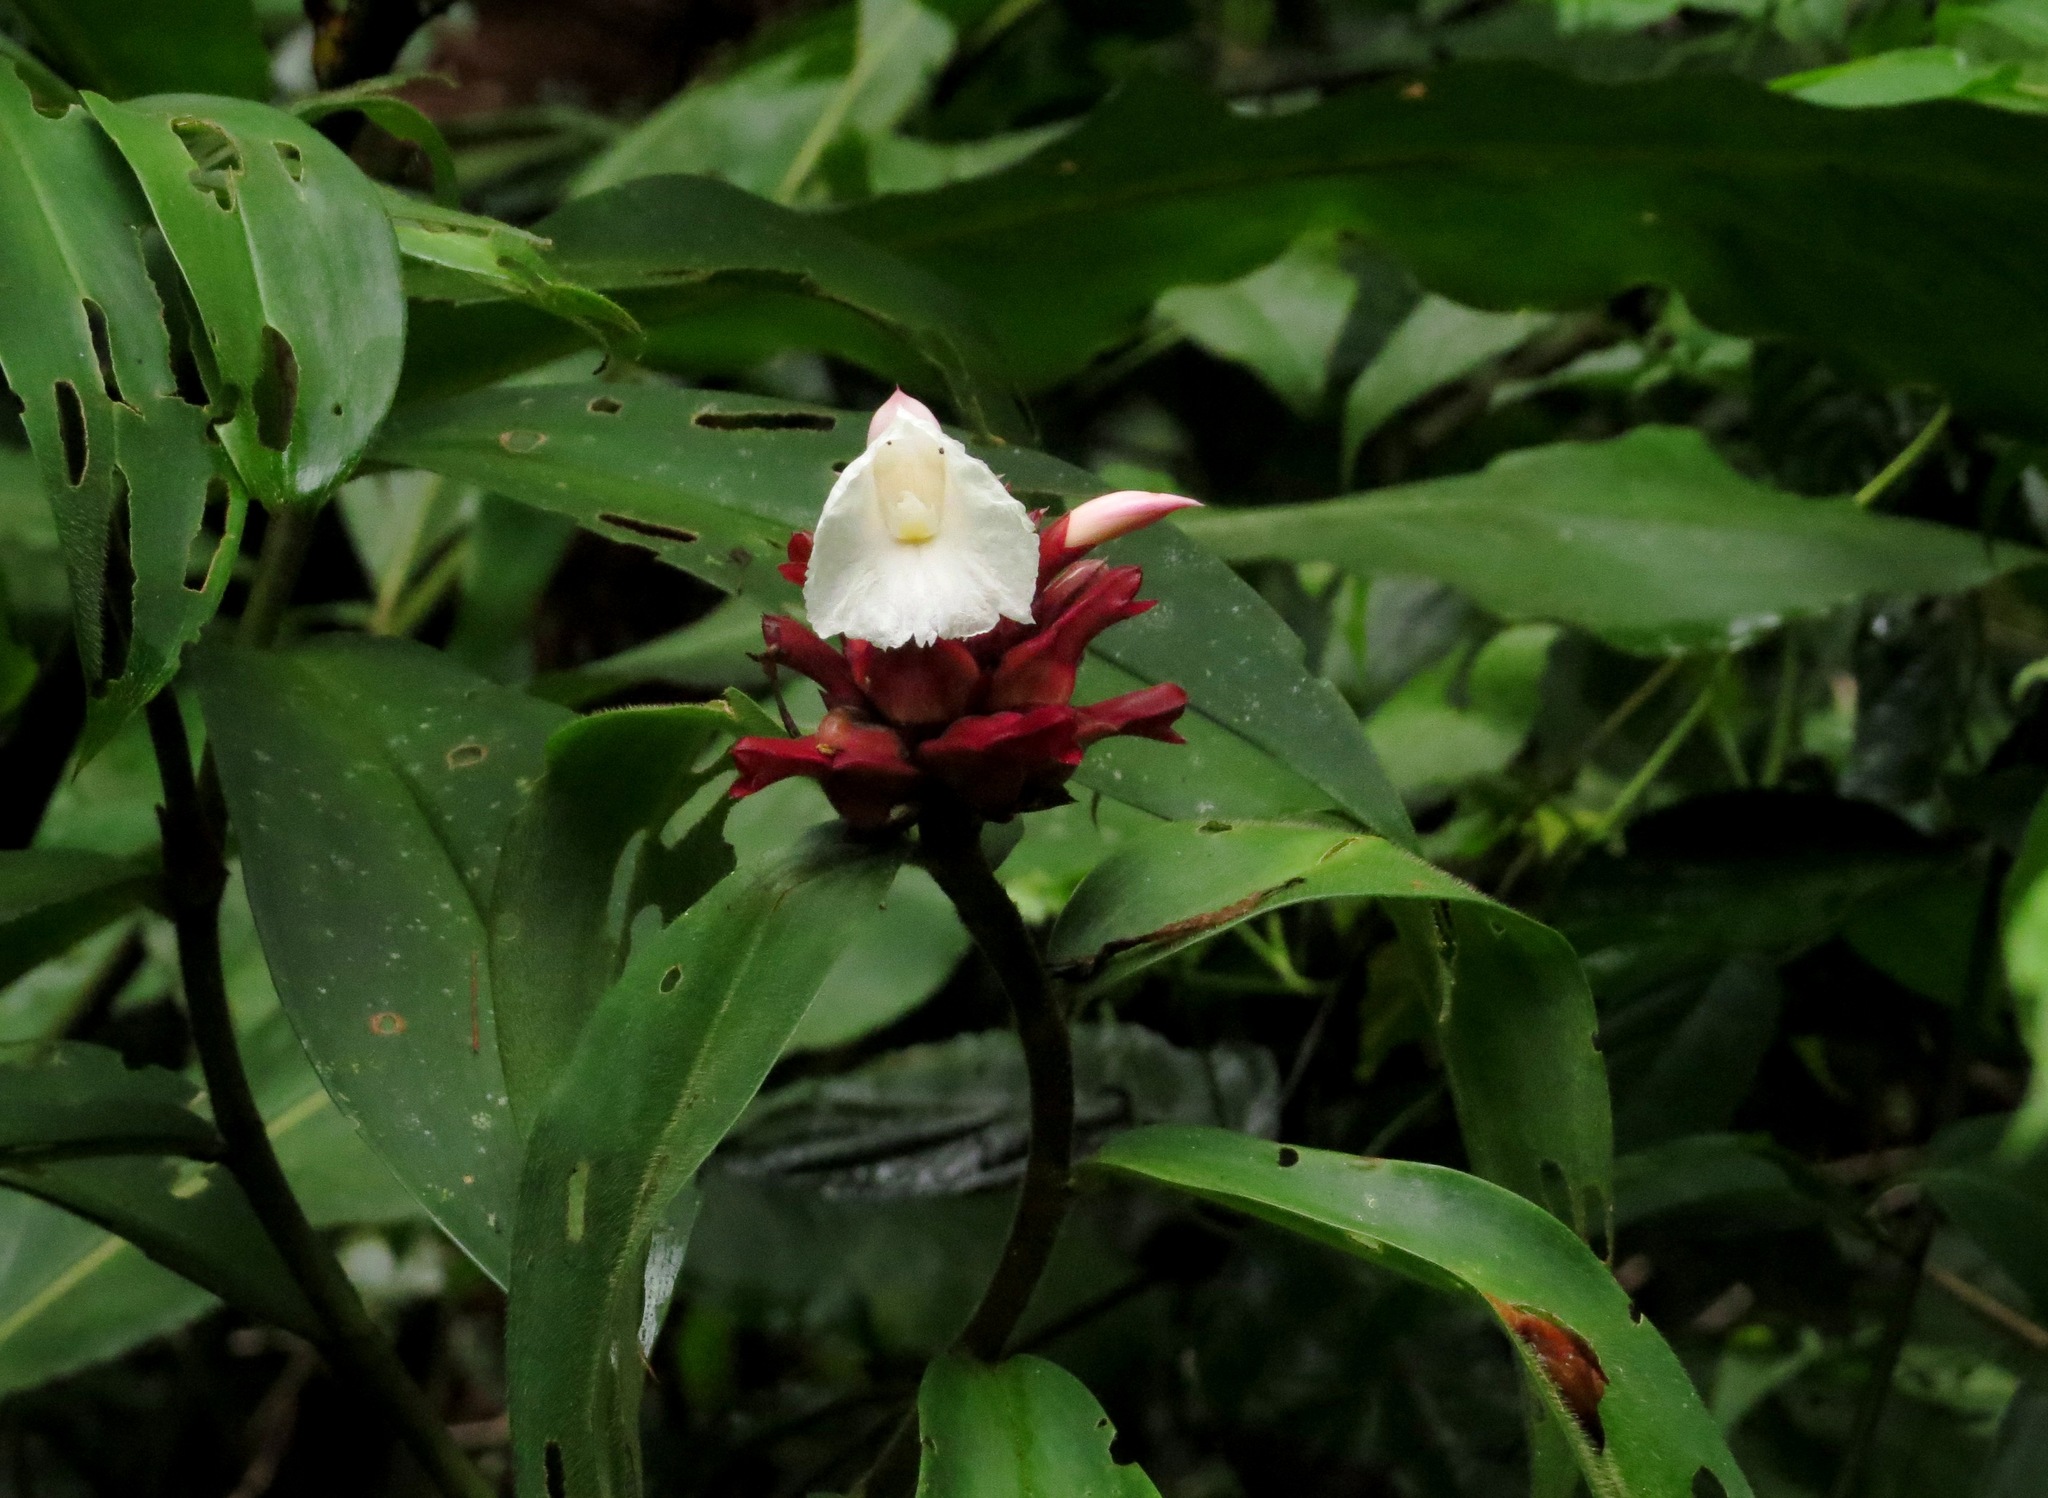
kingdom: Plantae
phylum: Tracheophyta
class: Liliopsida
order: Zingiberales
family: Costaceae
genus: Hellenia
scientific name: Hellenia speciosa
